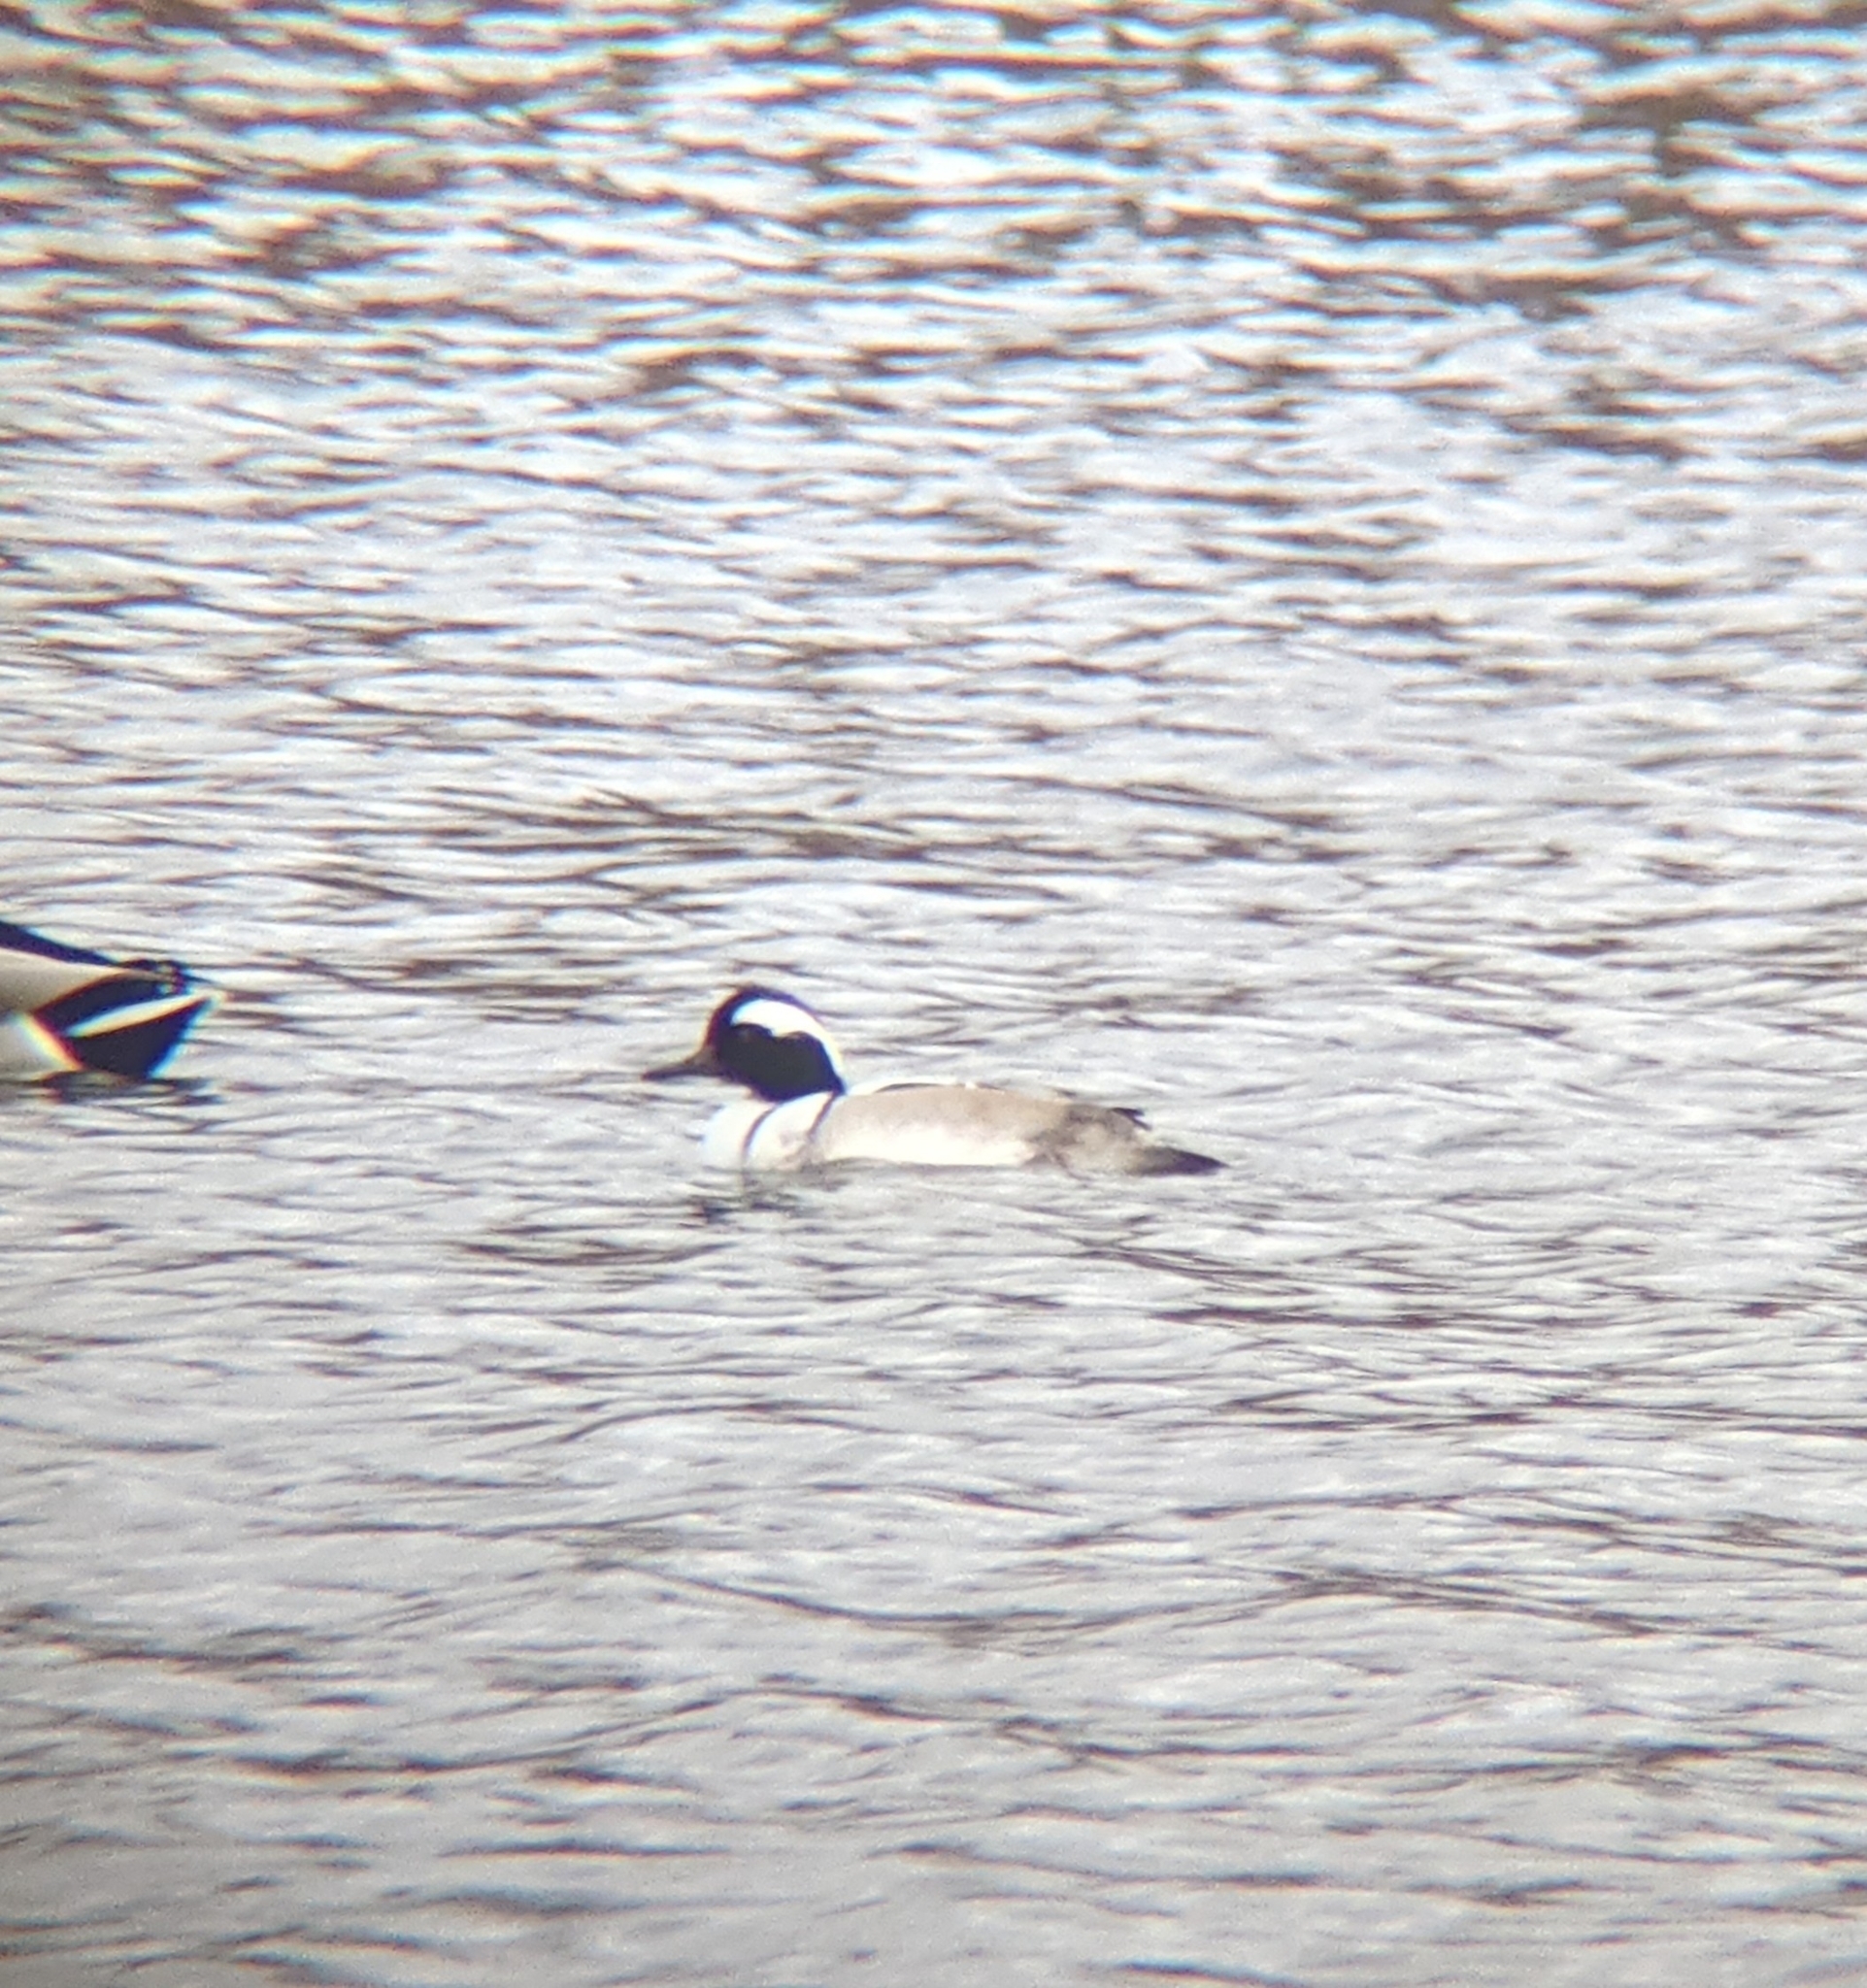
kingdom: Animalia
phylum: Chordata
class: Aves
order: Anseriformes
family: Anatidae
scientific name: Anatidae
